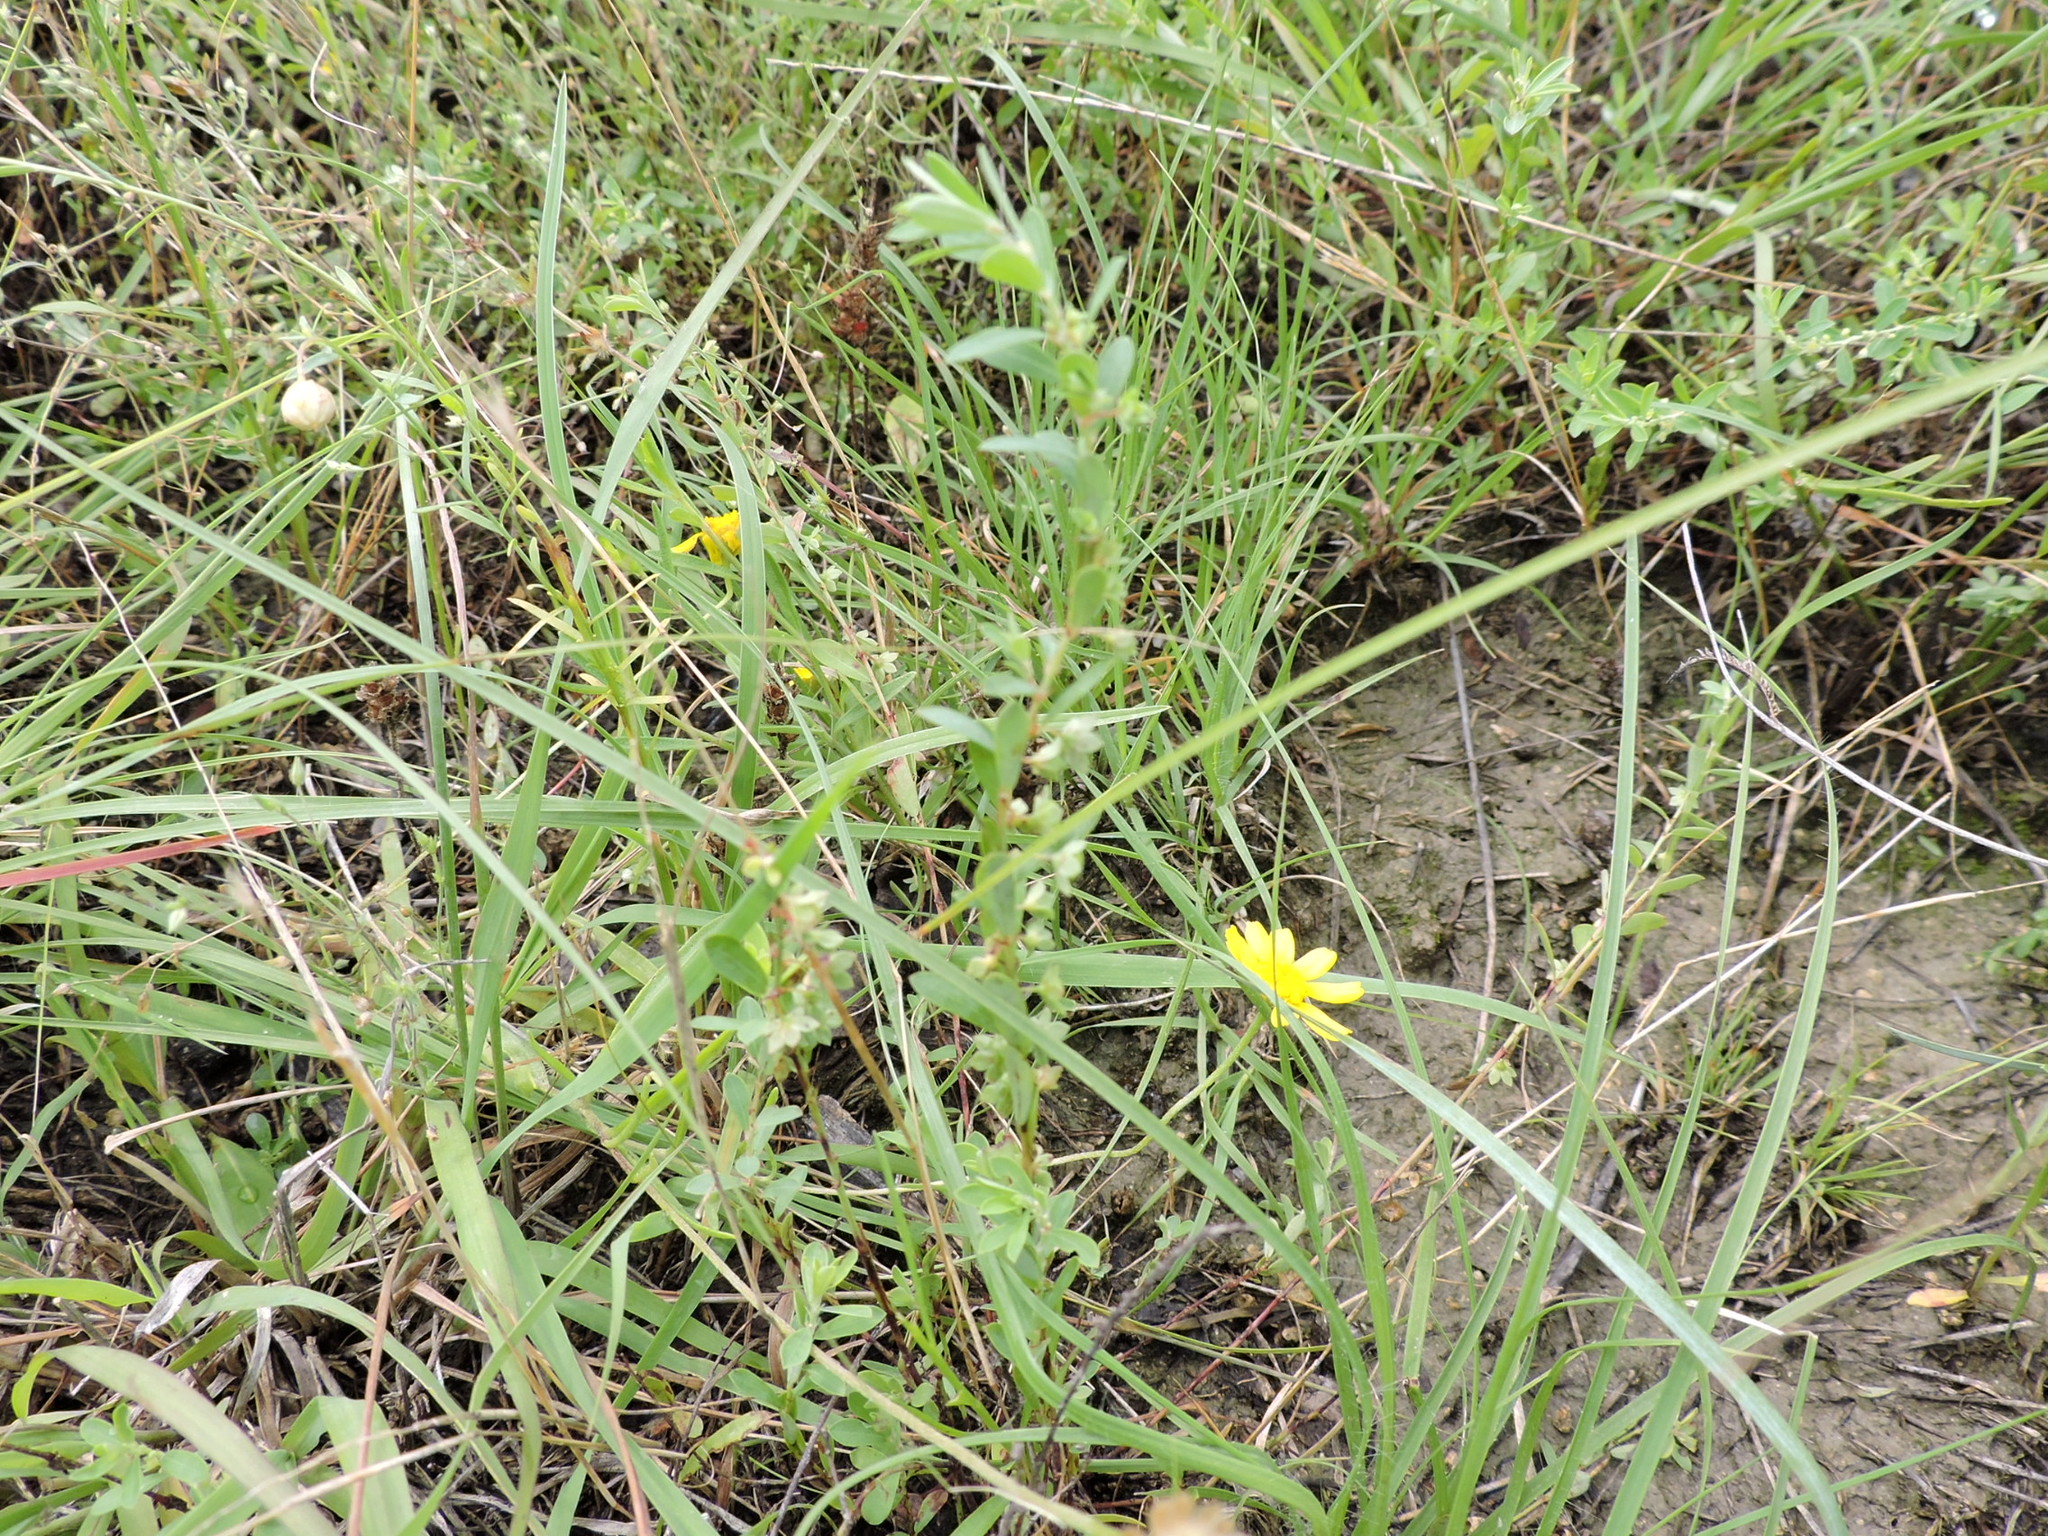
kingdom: Plantae
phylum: Tracheophyta
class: Magnoliopsida
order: Malpighiales
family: Phyllanthaceae
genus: Phyllanthus
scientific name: Phyllanthus polygonoides
